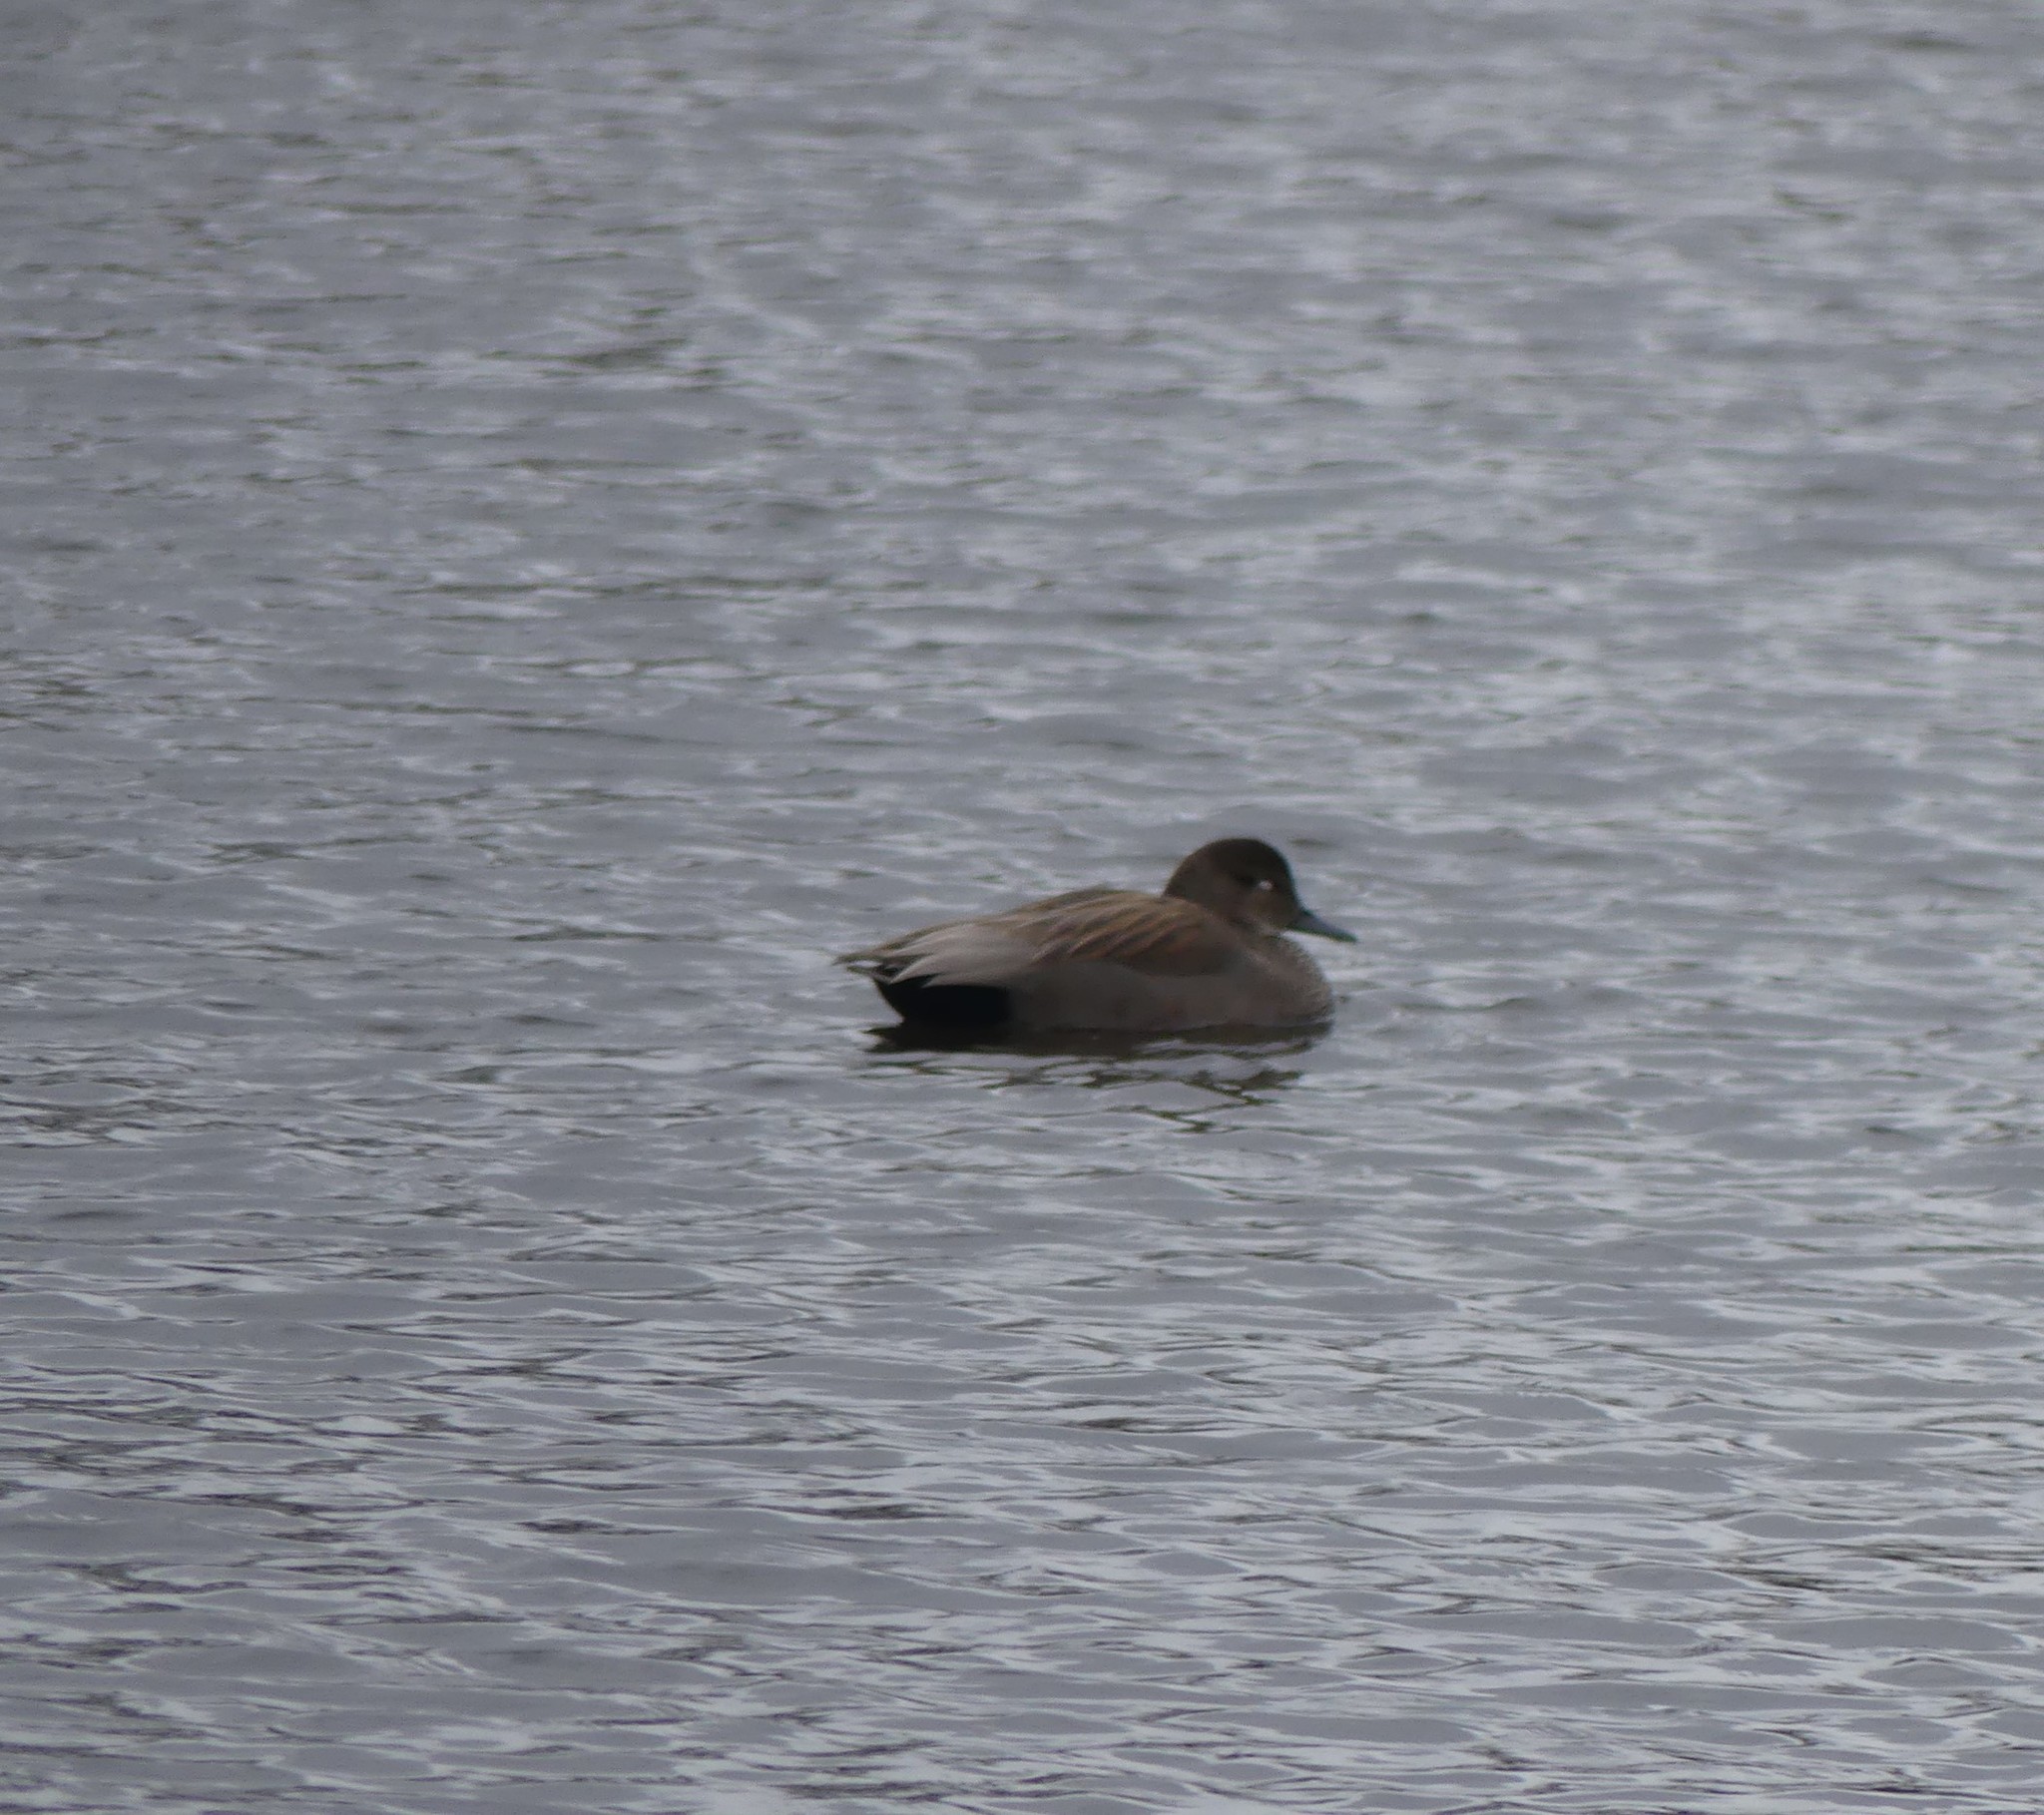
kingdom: Animalia
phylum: Chordata
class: Aves
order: Anseriformes
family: Anatidae
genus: Mareca
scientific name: Mareca strepera
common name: Gadwall
